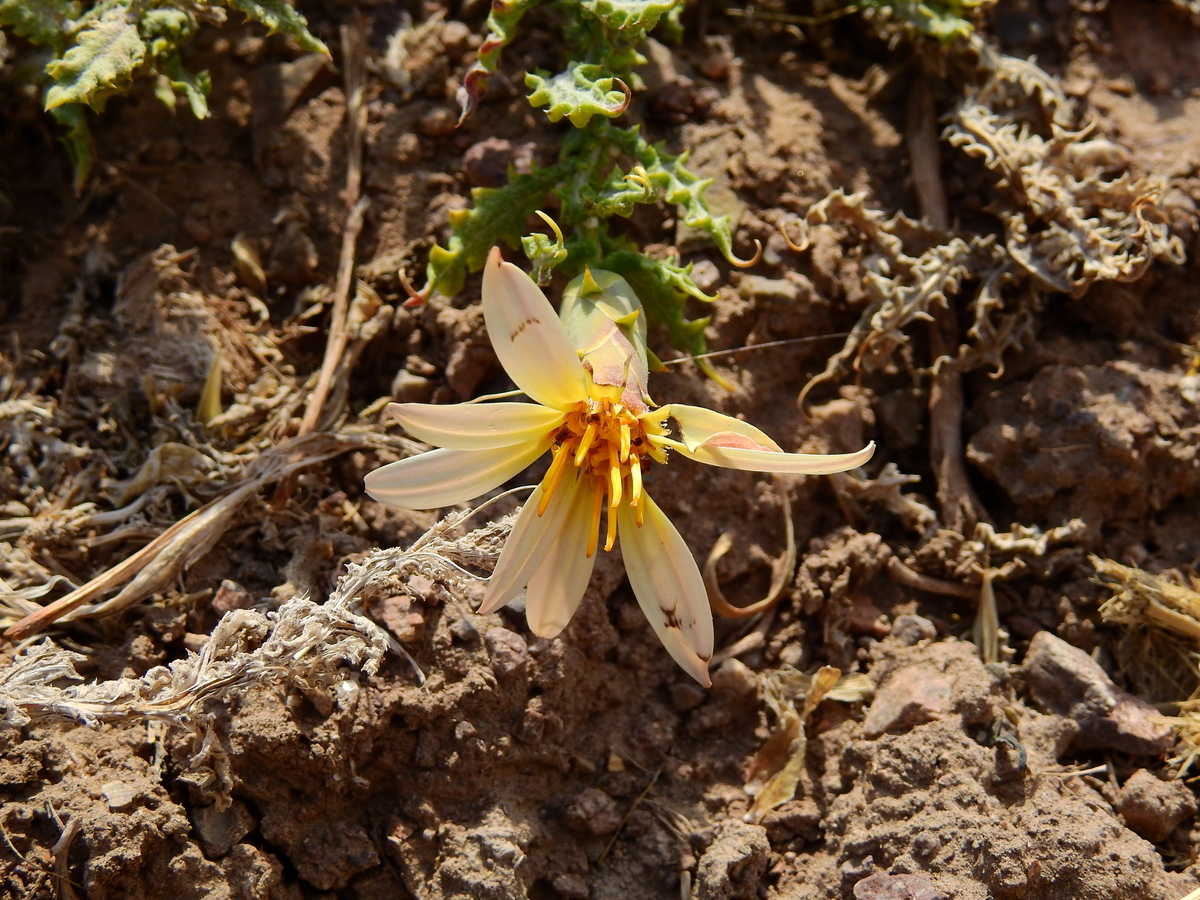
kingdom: Plantae
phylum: Tracheophyta
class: Magnoliopsida
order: Asterales
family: Asteraceae
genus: Mutisia
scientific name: Mutisia sinuata
